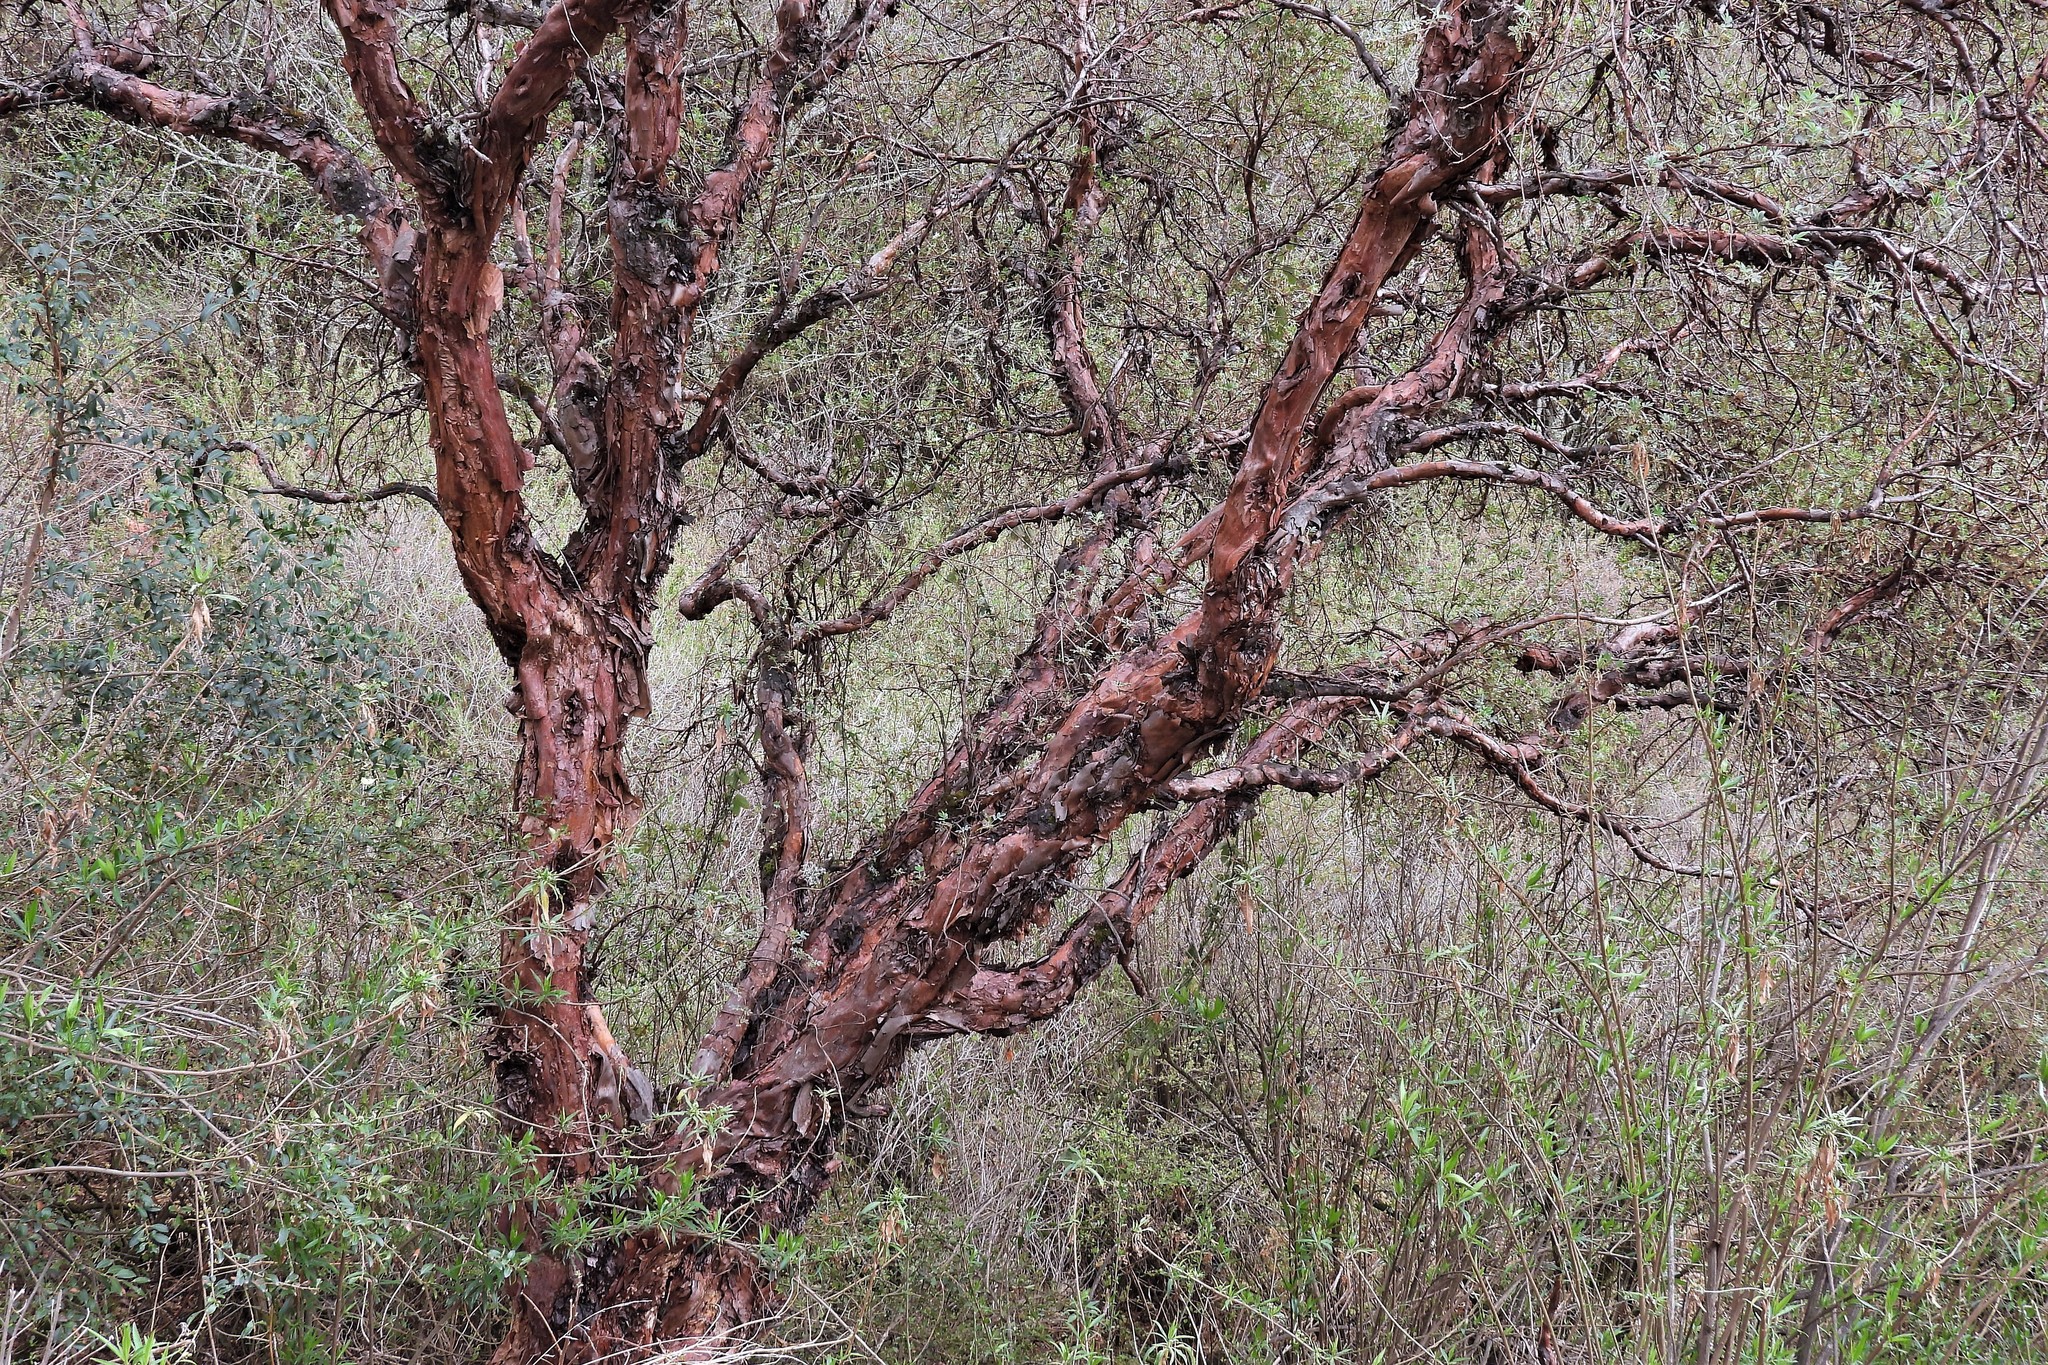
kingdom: Plantae
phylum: Tracheophyta
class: Magnoliopsida
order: Rosales
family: Rosaceae
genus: Polylepis
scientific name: Polylepis australis
